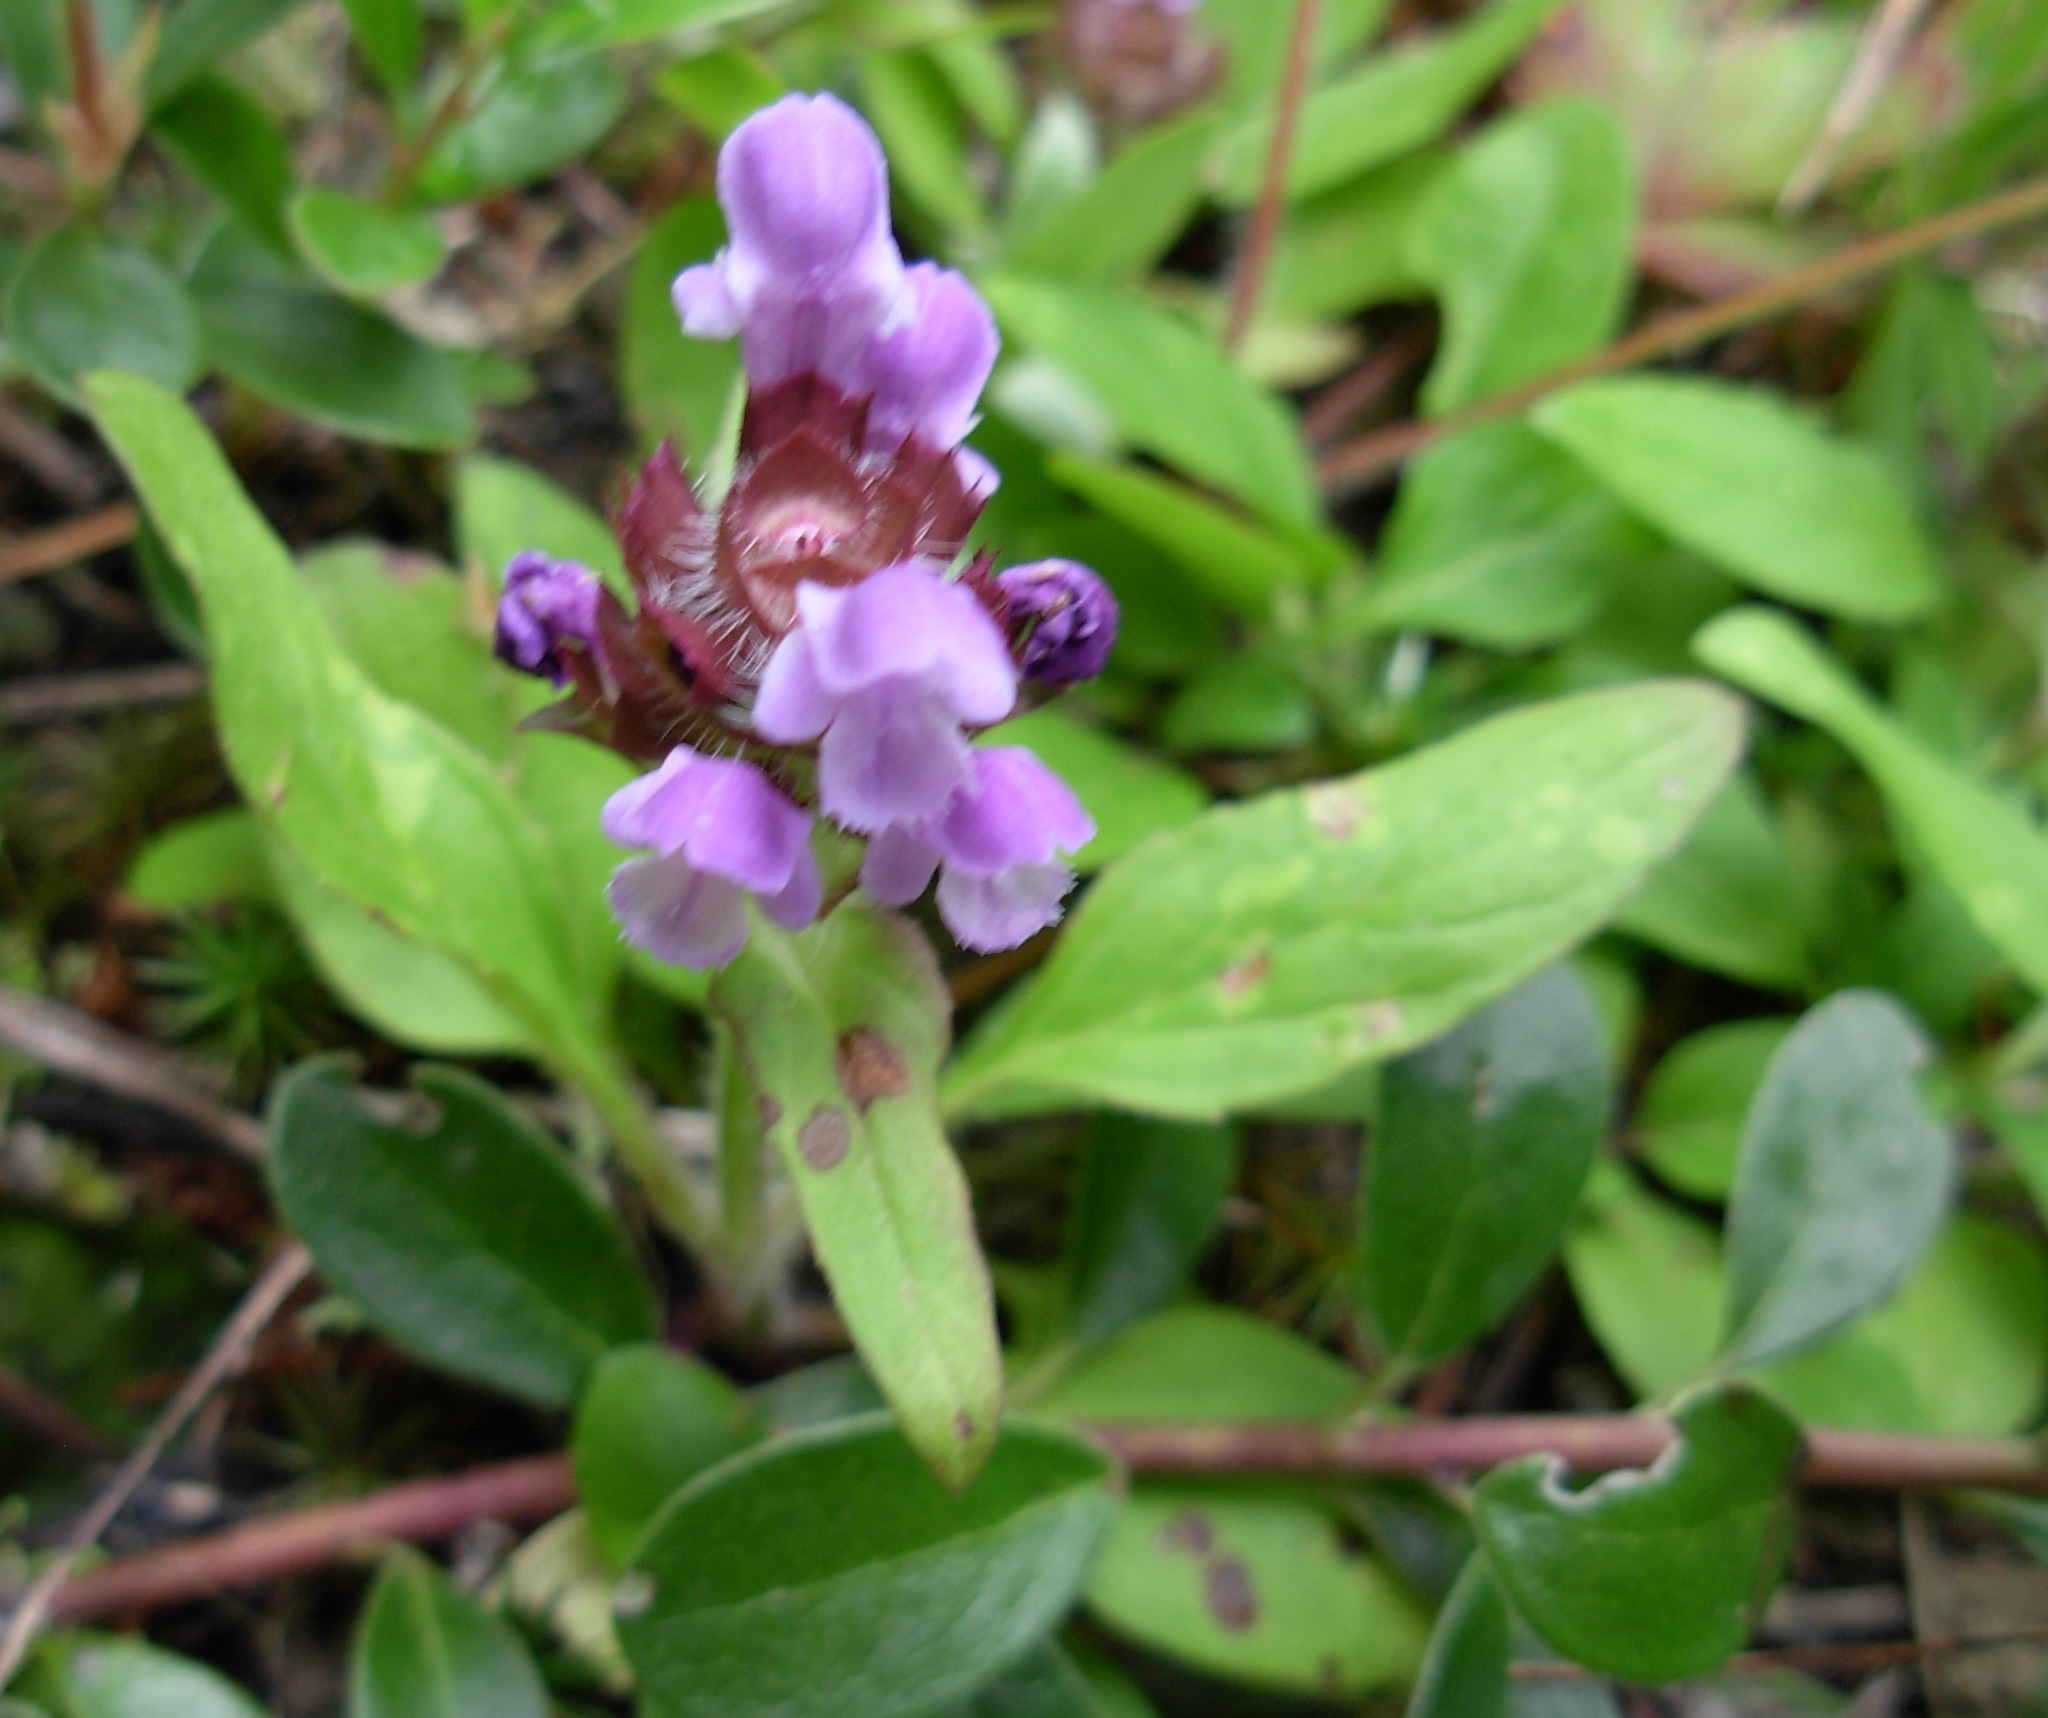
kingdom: Plantae
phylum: Tracheophyta
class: Magnoliopsida
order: Lamiales
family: Lamiaceae
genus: Prunella
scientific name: Prunella vulgaris
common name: Heal-all
